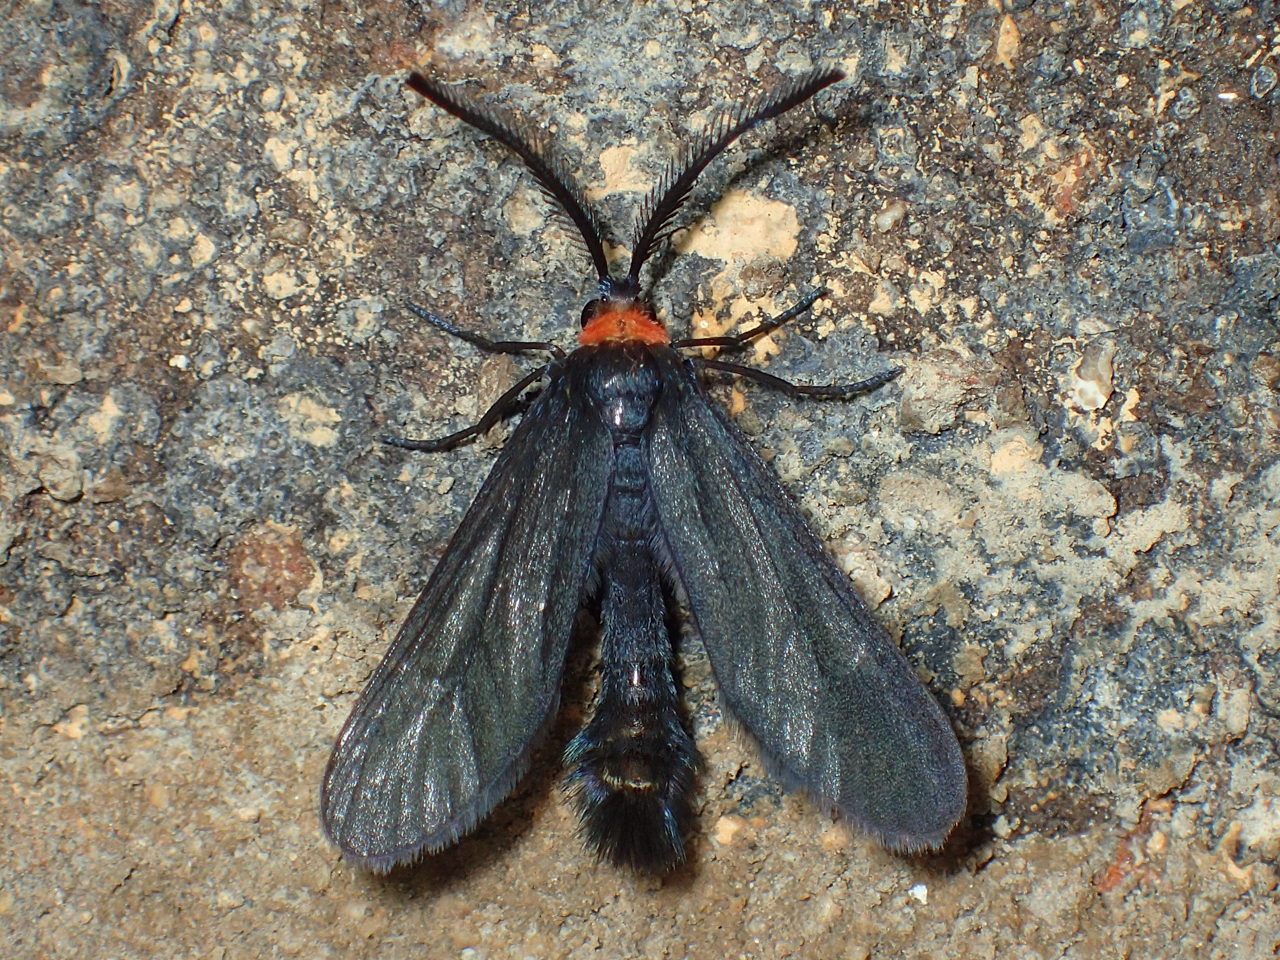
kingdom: Animalia
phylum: Arthropoda
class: Insecta
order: Lepidoptera
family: Zygaenidae
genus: Harrisina
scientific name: Harrisina americana
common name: Grapeleaf skeletonizer moth
